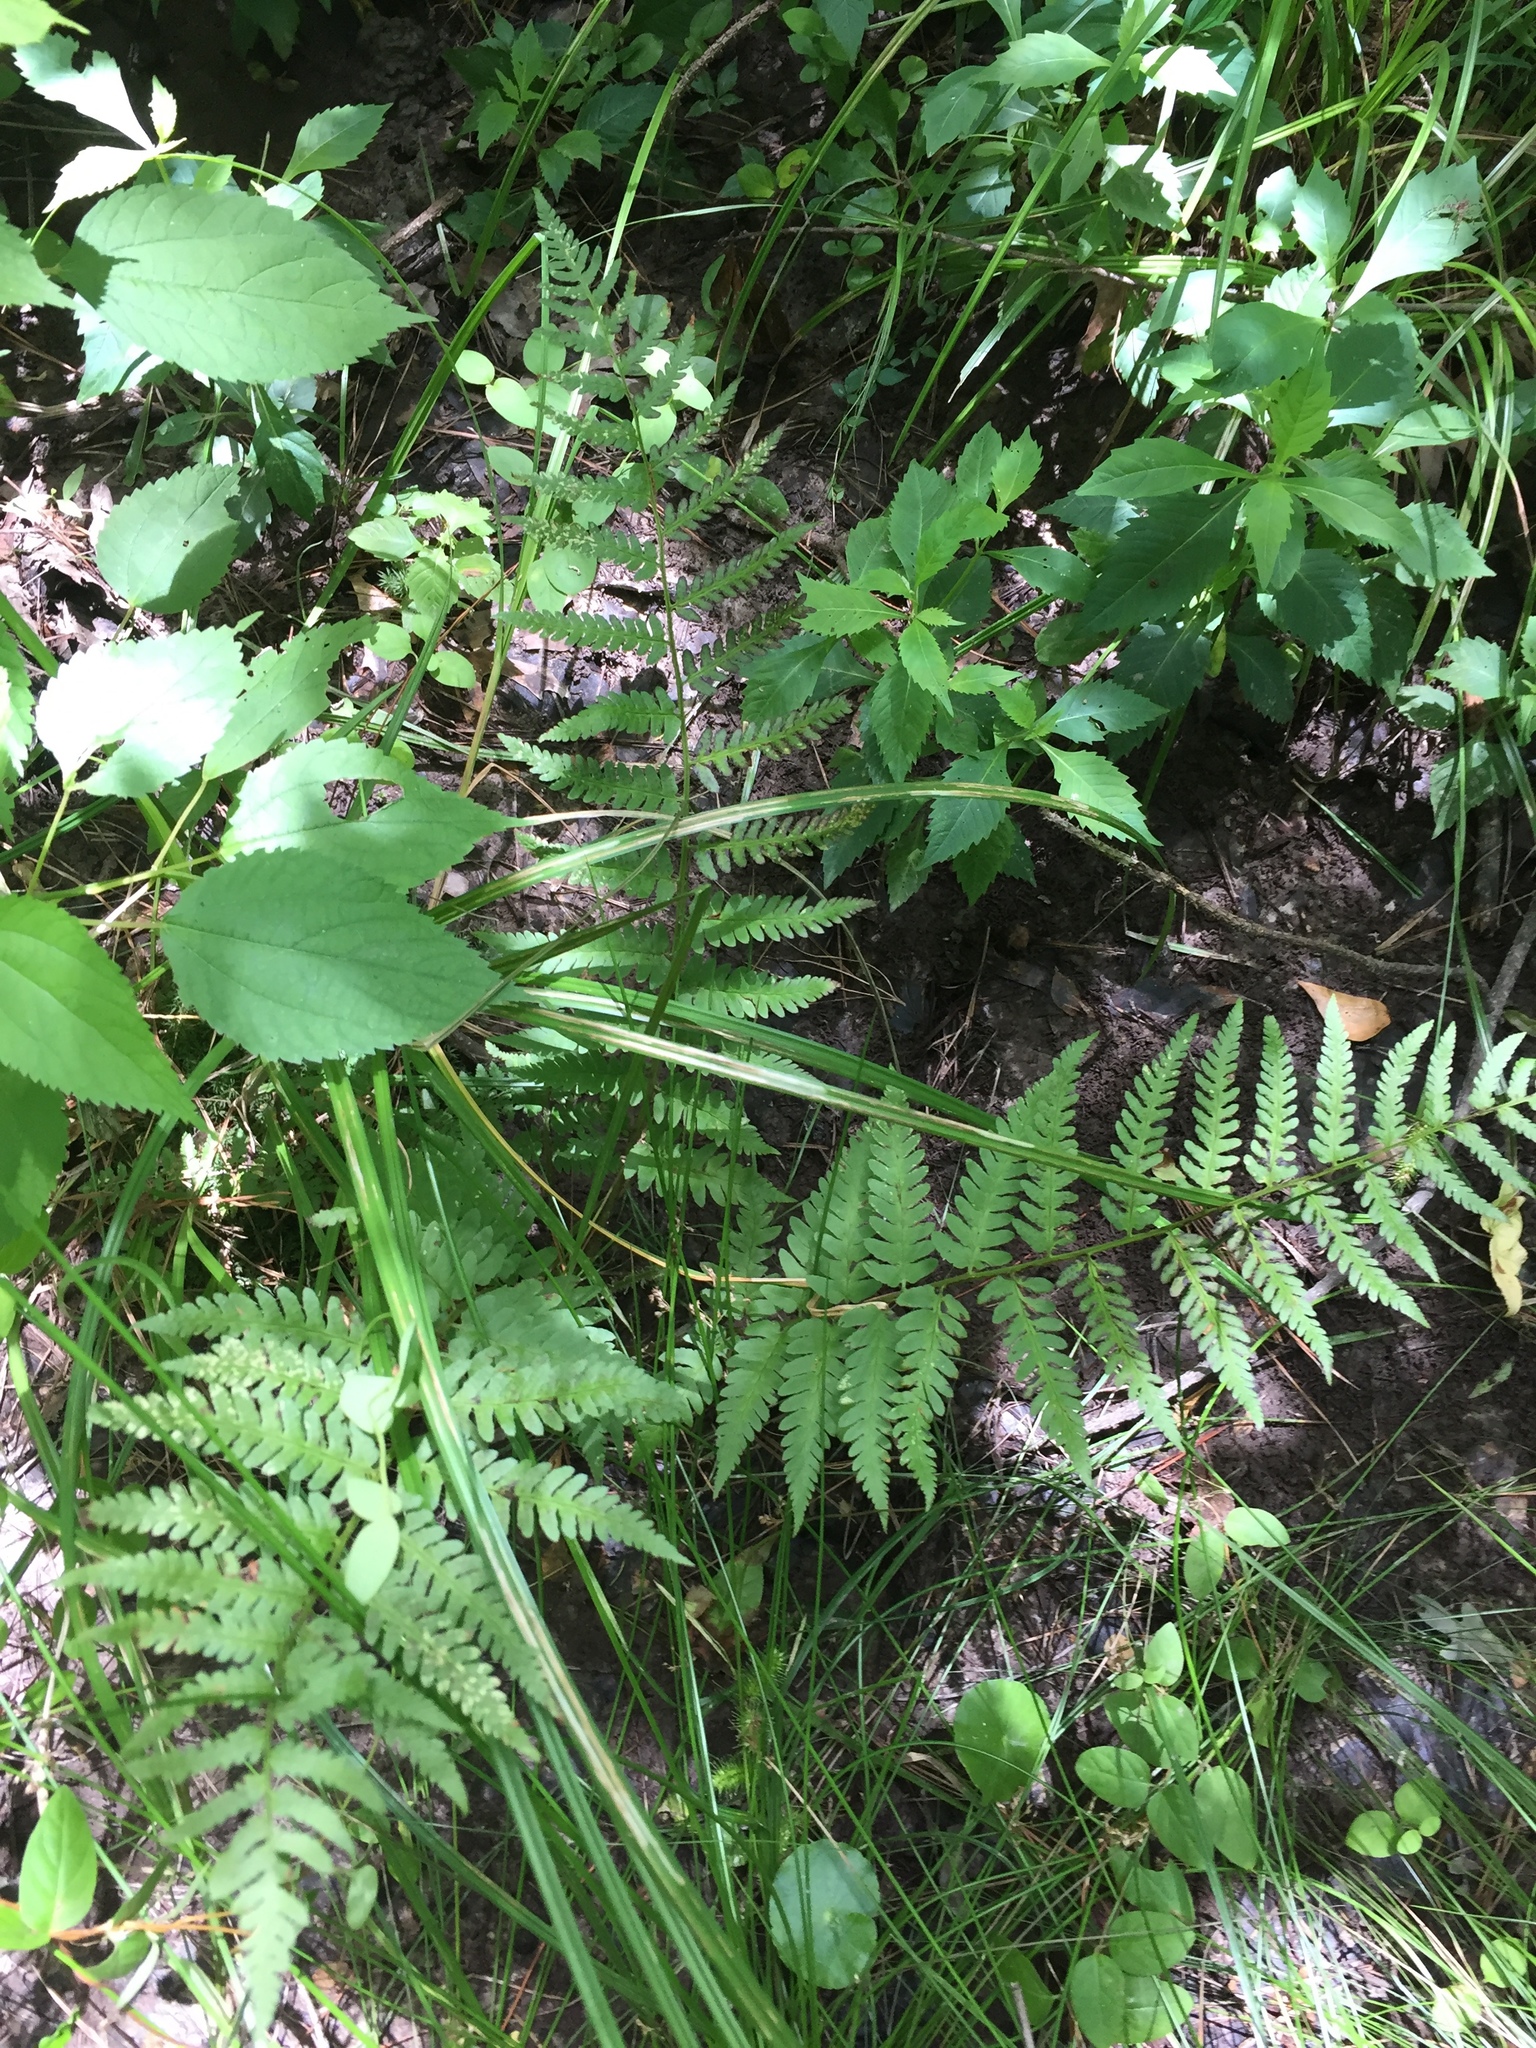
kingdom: Plantae
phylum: Tracheophyta
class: Polypodiopsida
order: Polypodiales
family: Dryopteridaceae
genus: Dryopteris
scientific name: Dryopteris celsa
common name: Log fern
